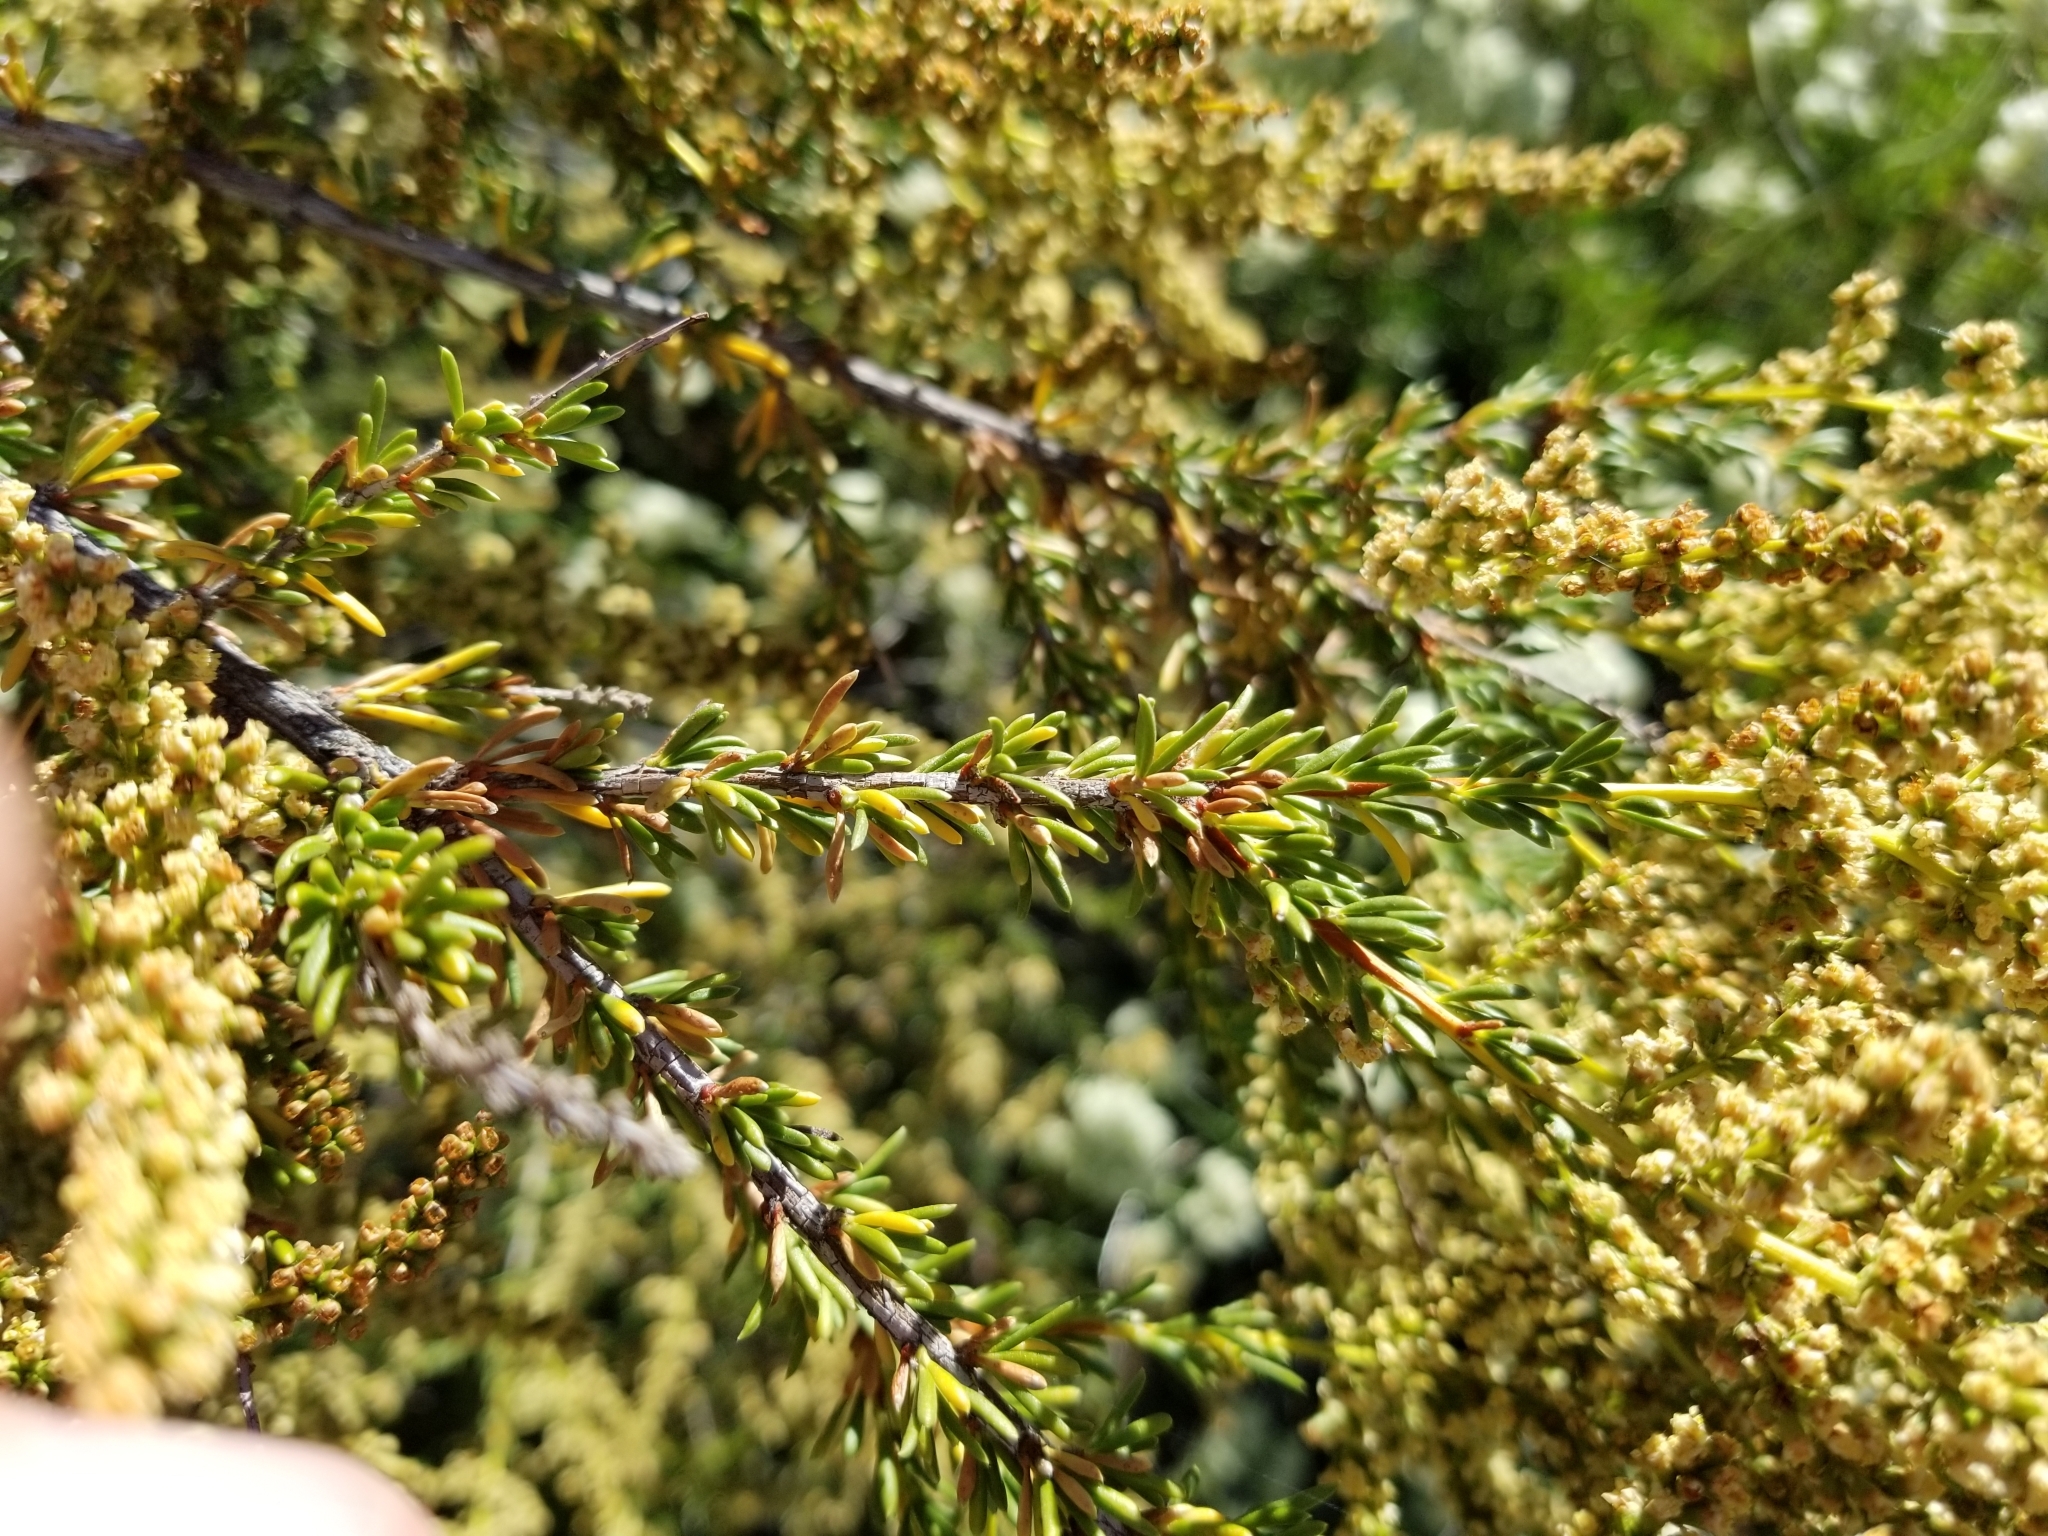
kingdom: Plantae
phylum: Tracheophyta
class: Magnoliopsida
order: Rosales
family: Rosaceae
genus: Adenostoma
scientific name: Adenostoma fasciculatum
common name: Chamise
